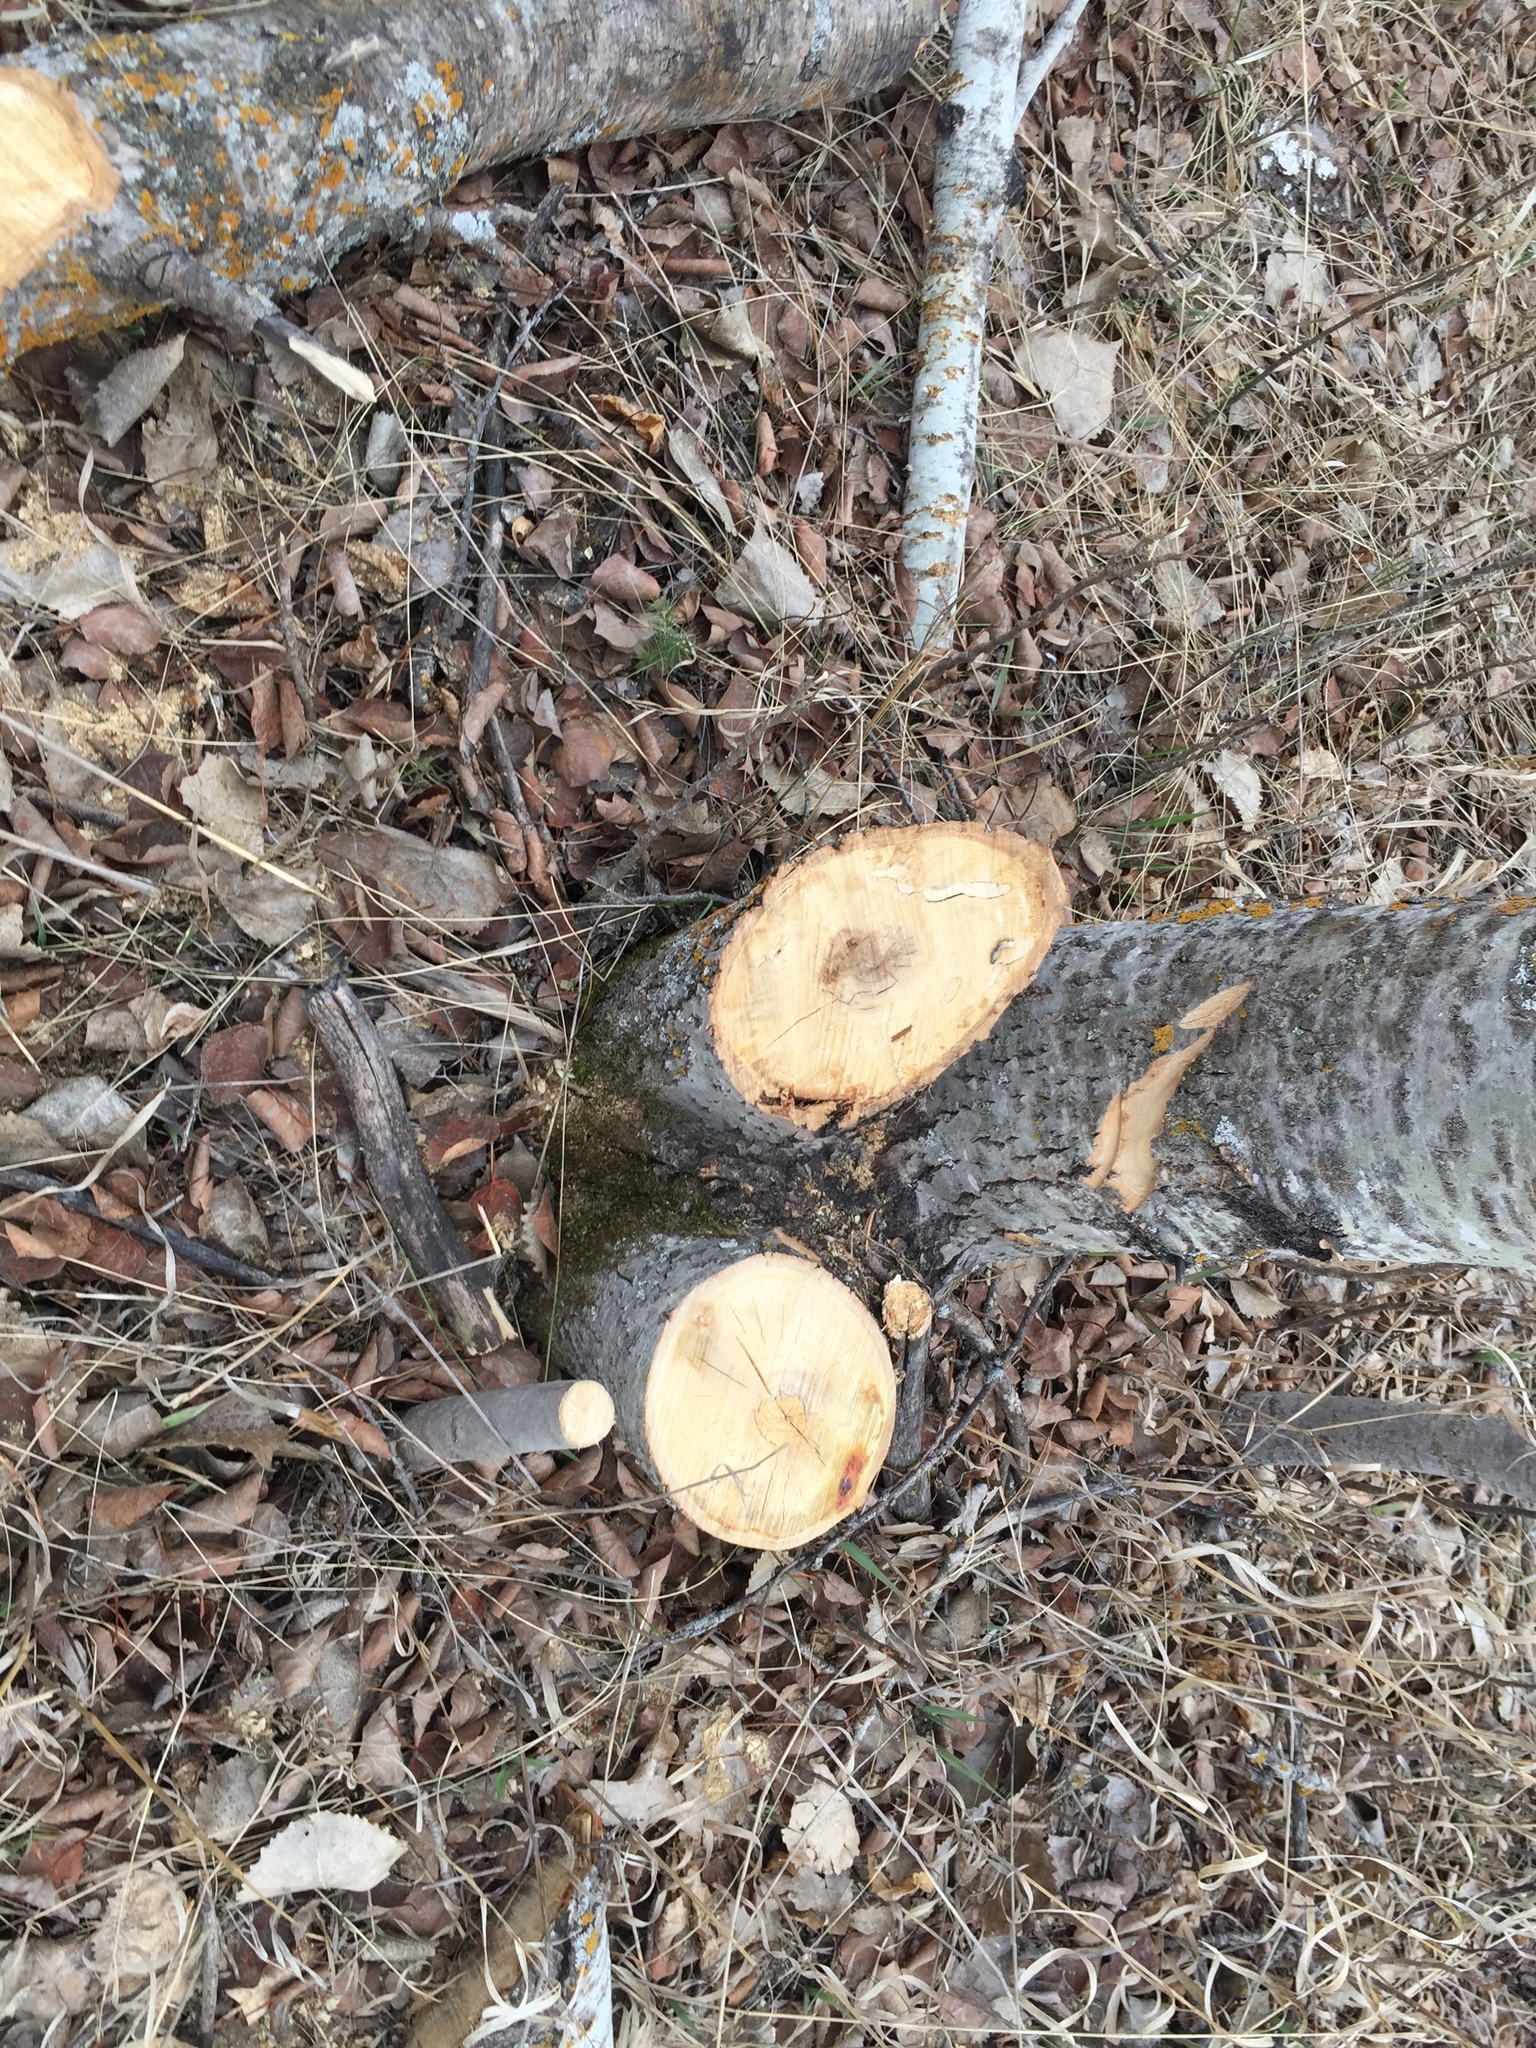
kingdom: Plantae
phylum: Tracheophyta
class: Magnoliopsida
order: Malpighiales
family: Salicaceae
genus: Populus
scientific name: Populus tremuloides
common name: Quaking aspen
